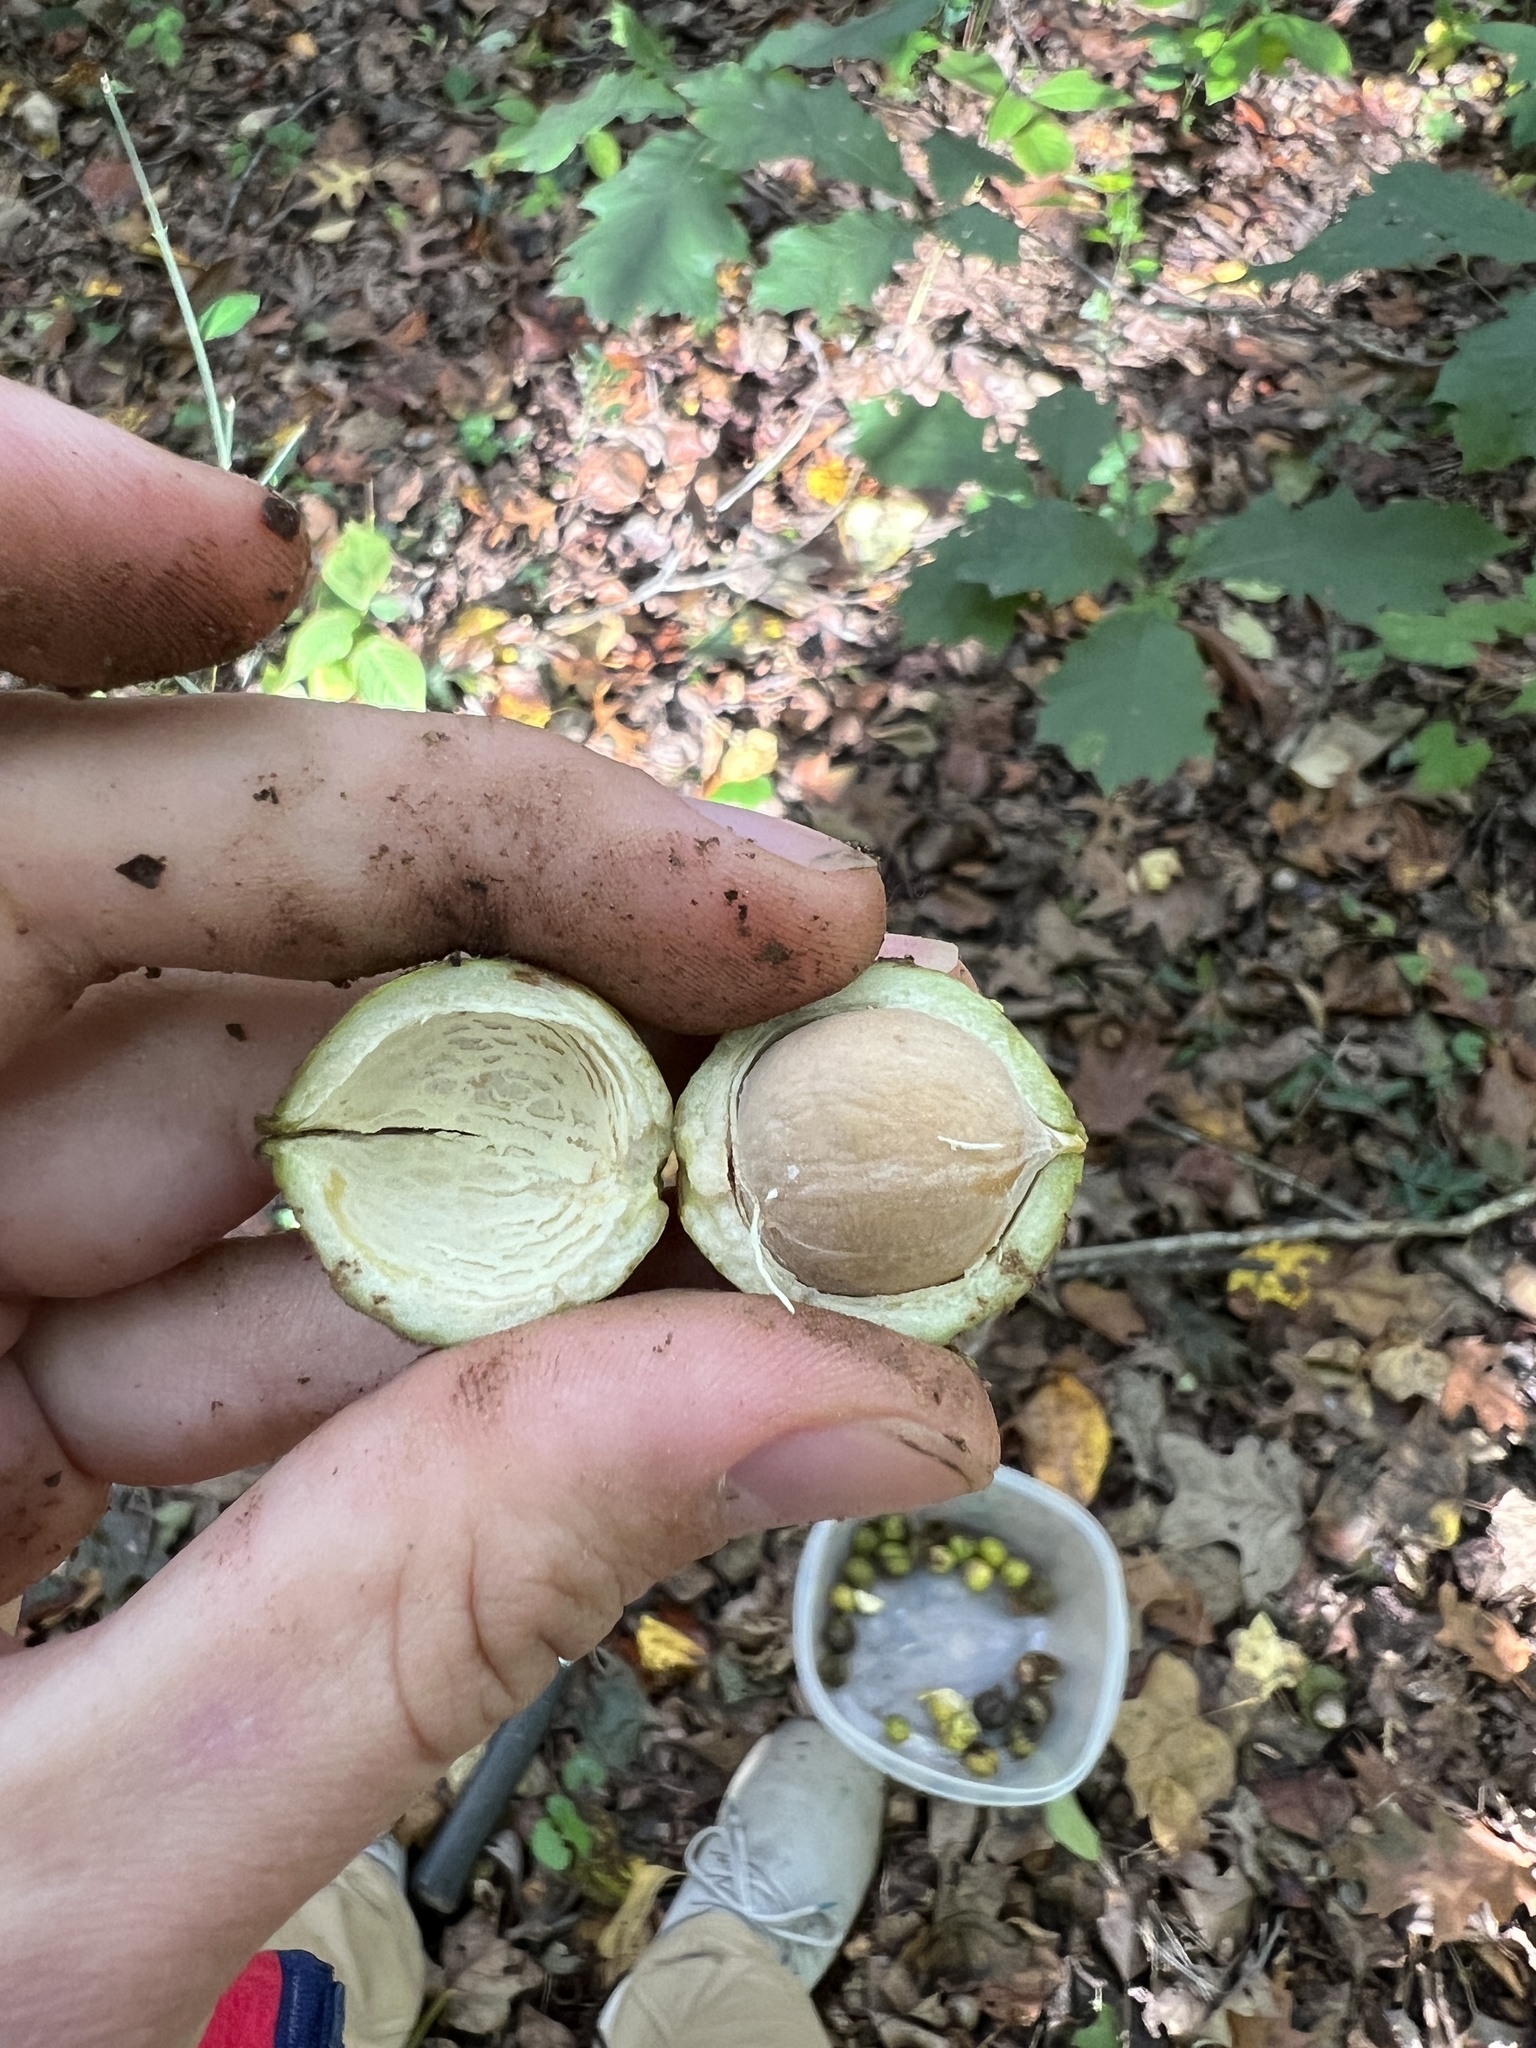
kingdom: Plantae
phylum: Tracheophyta
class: Magnoliopsida
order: Fagales
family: Juglandaceae
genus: Carya
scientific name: Carya cordiformis
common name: Bitternut hickory
